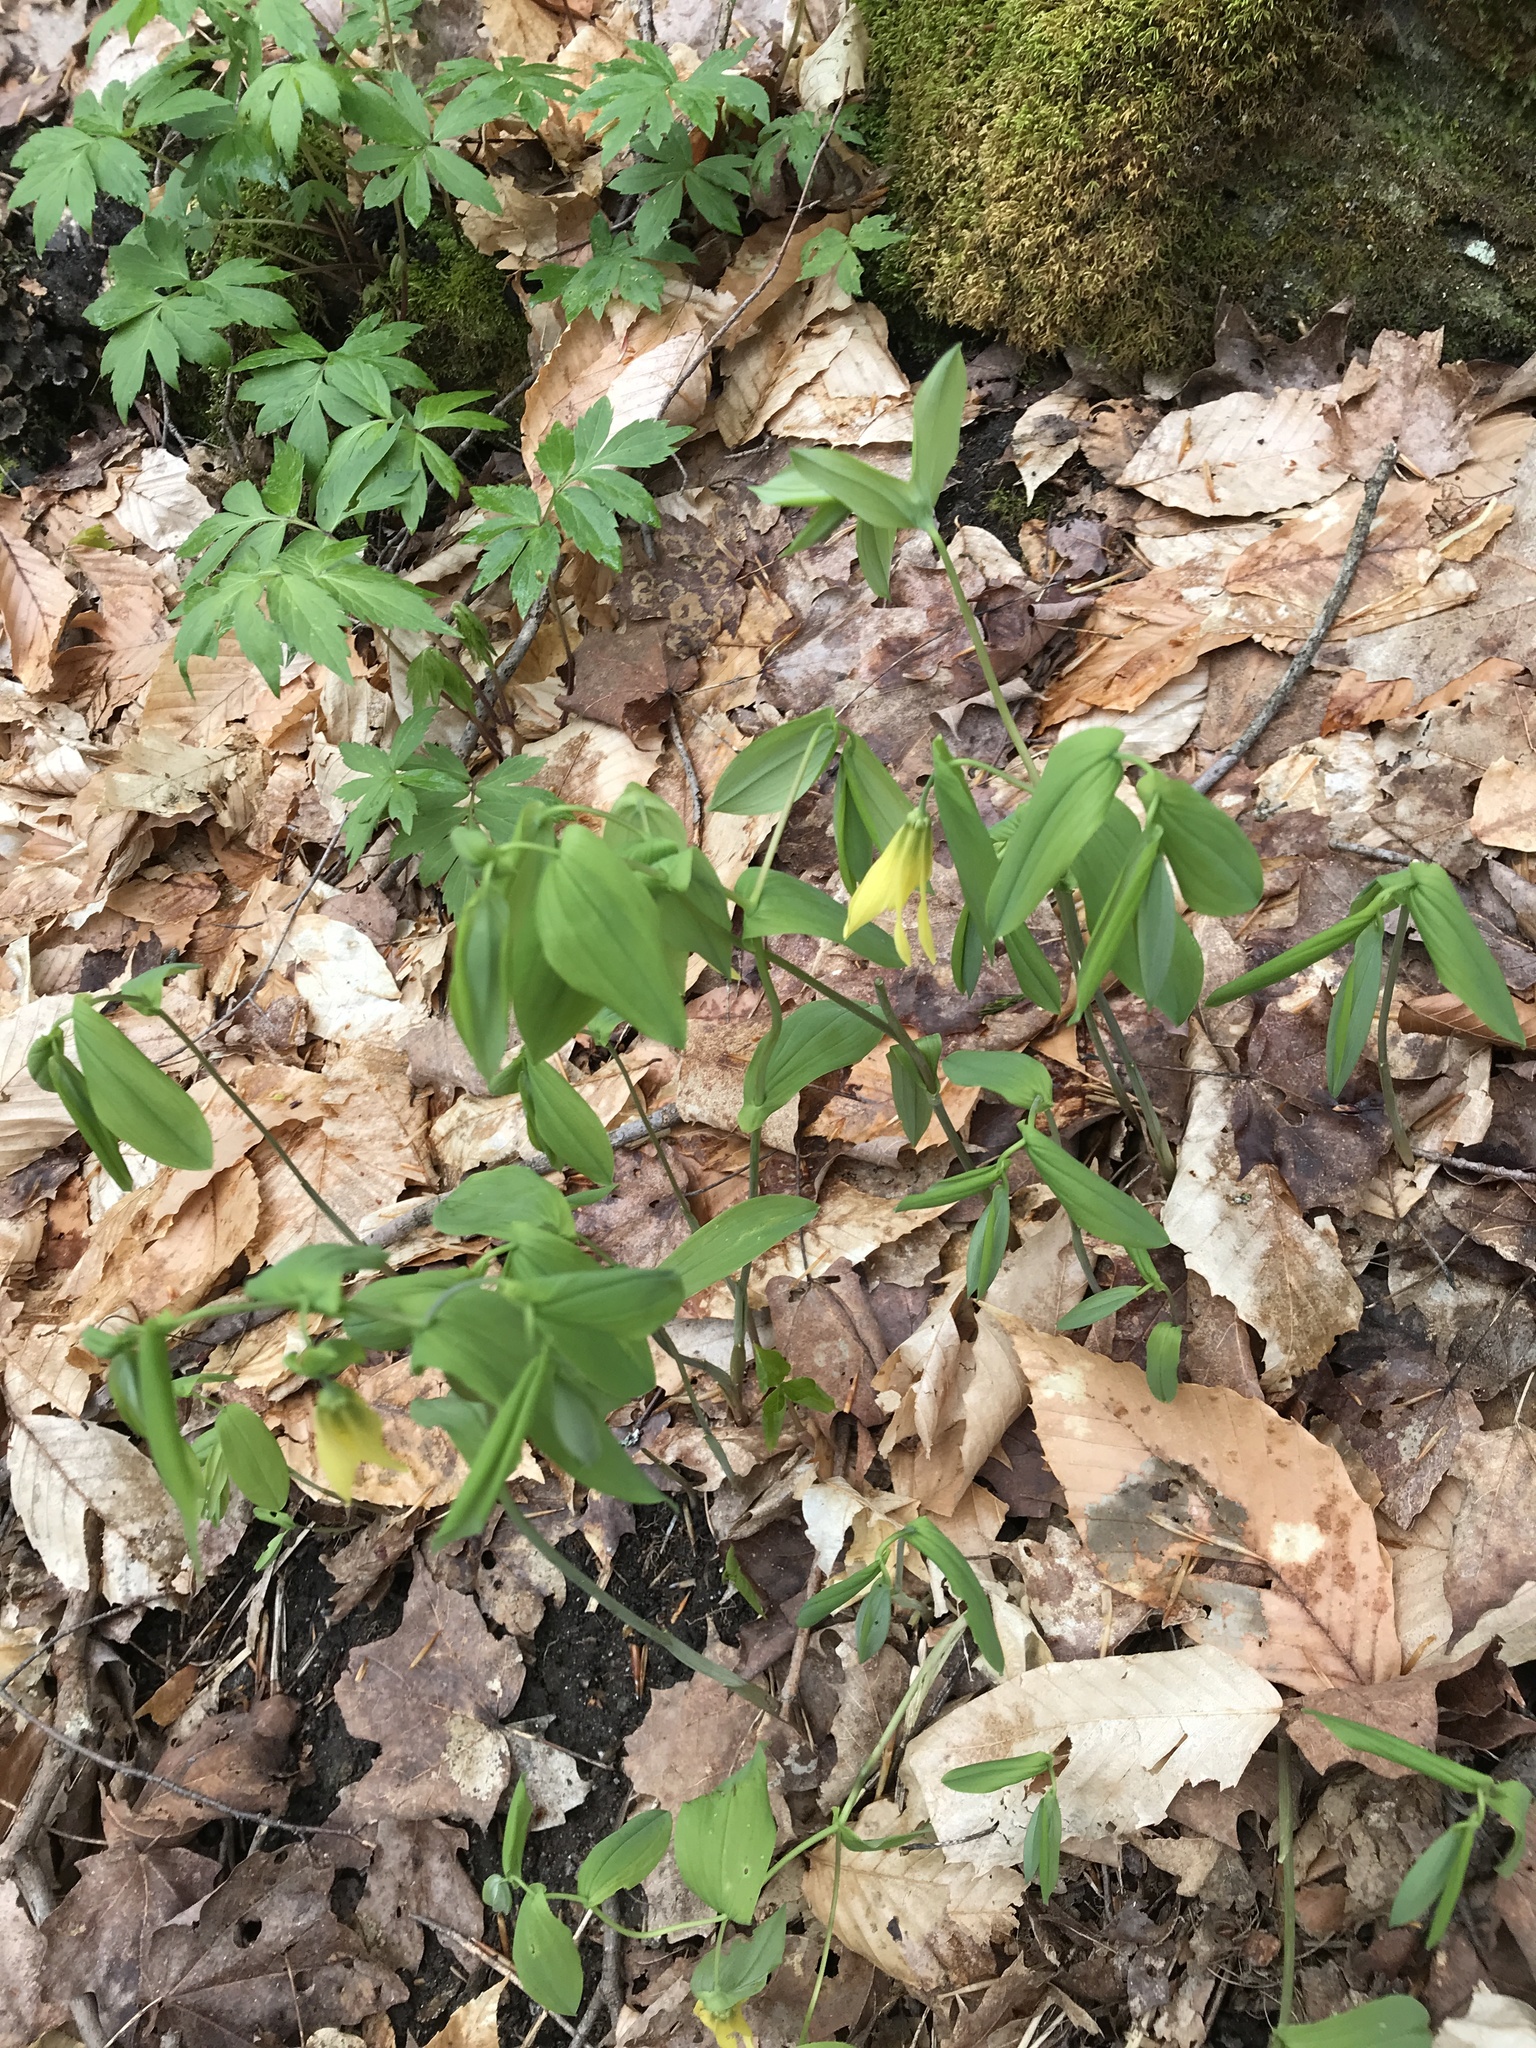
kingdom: Plantae
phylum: Tracheophyta
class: Liliopsida
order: Liliales
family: Colchicaceae
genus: Uvularia
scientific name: Uvularia grandiflora
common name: Bellwort
